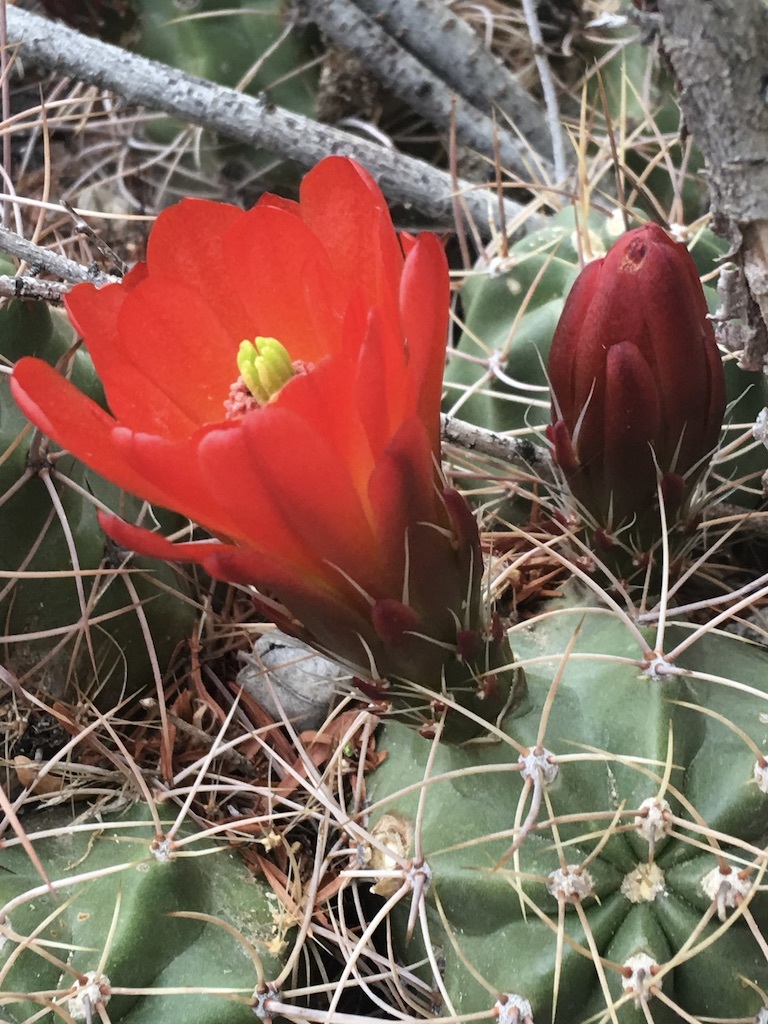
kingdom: Plantae
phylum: Tracheophyta
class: Magnoliopsida
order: Caryophyllales
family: Cactaceae
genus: Echinocereus
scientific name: Echinocereus triglochidiatus
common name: Claretcup hedgehog
